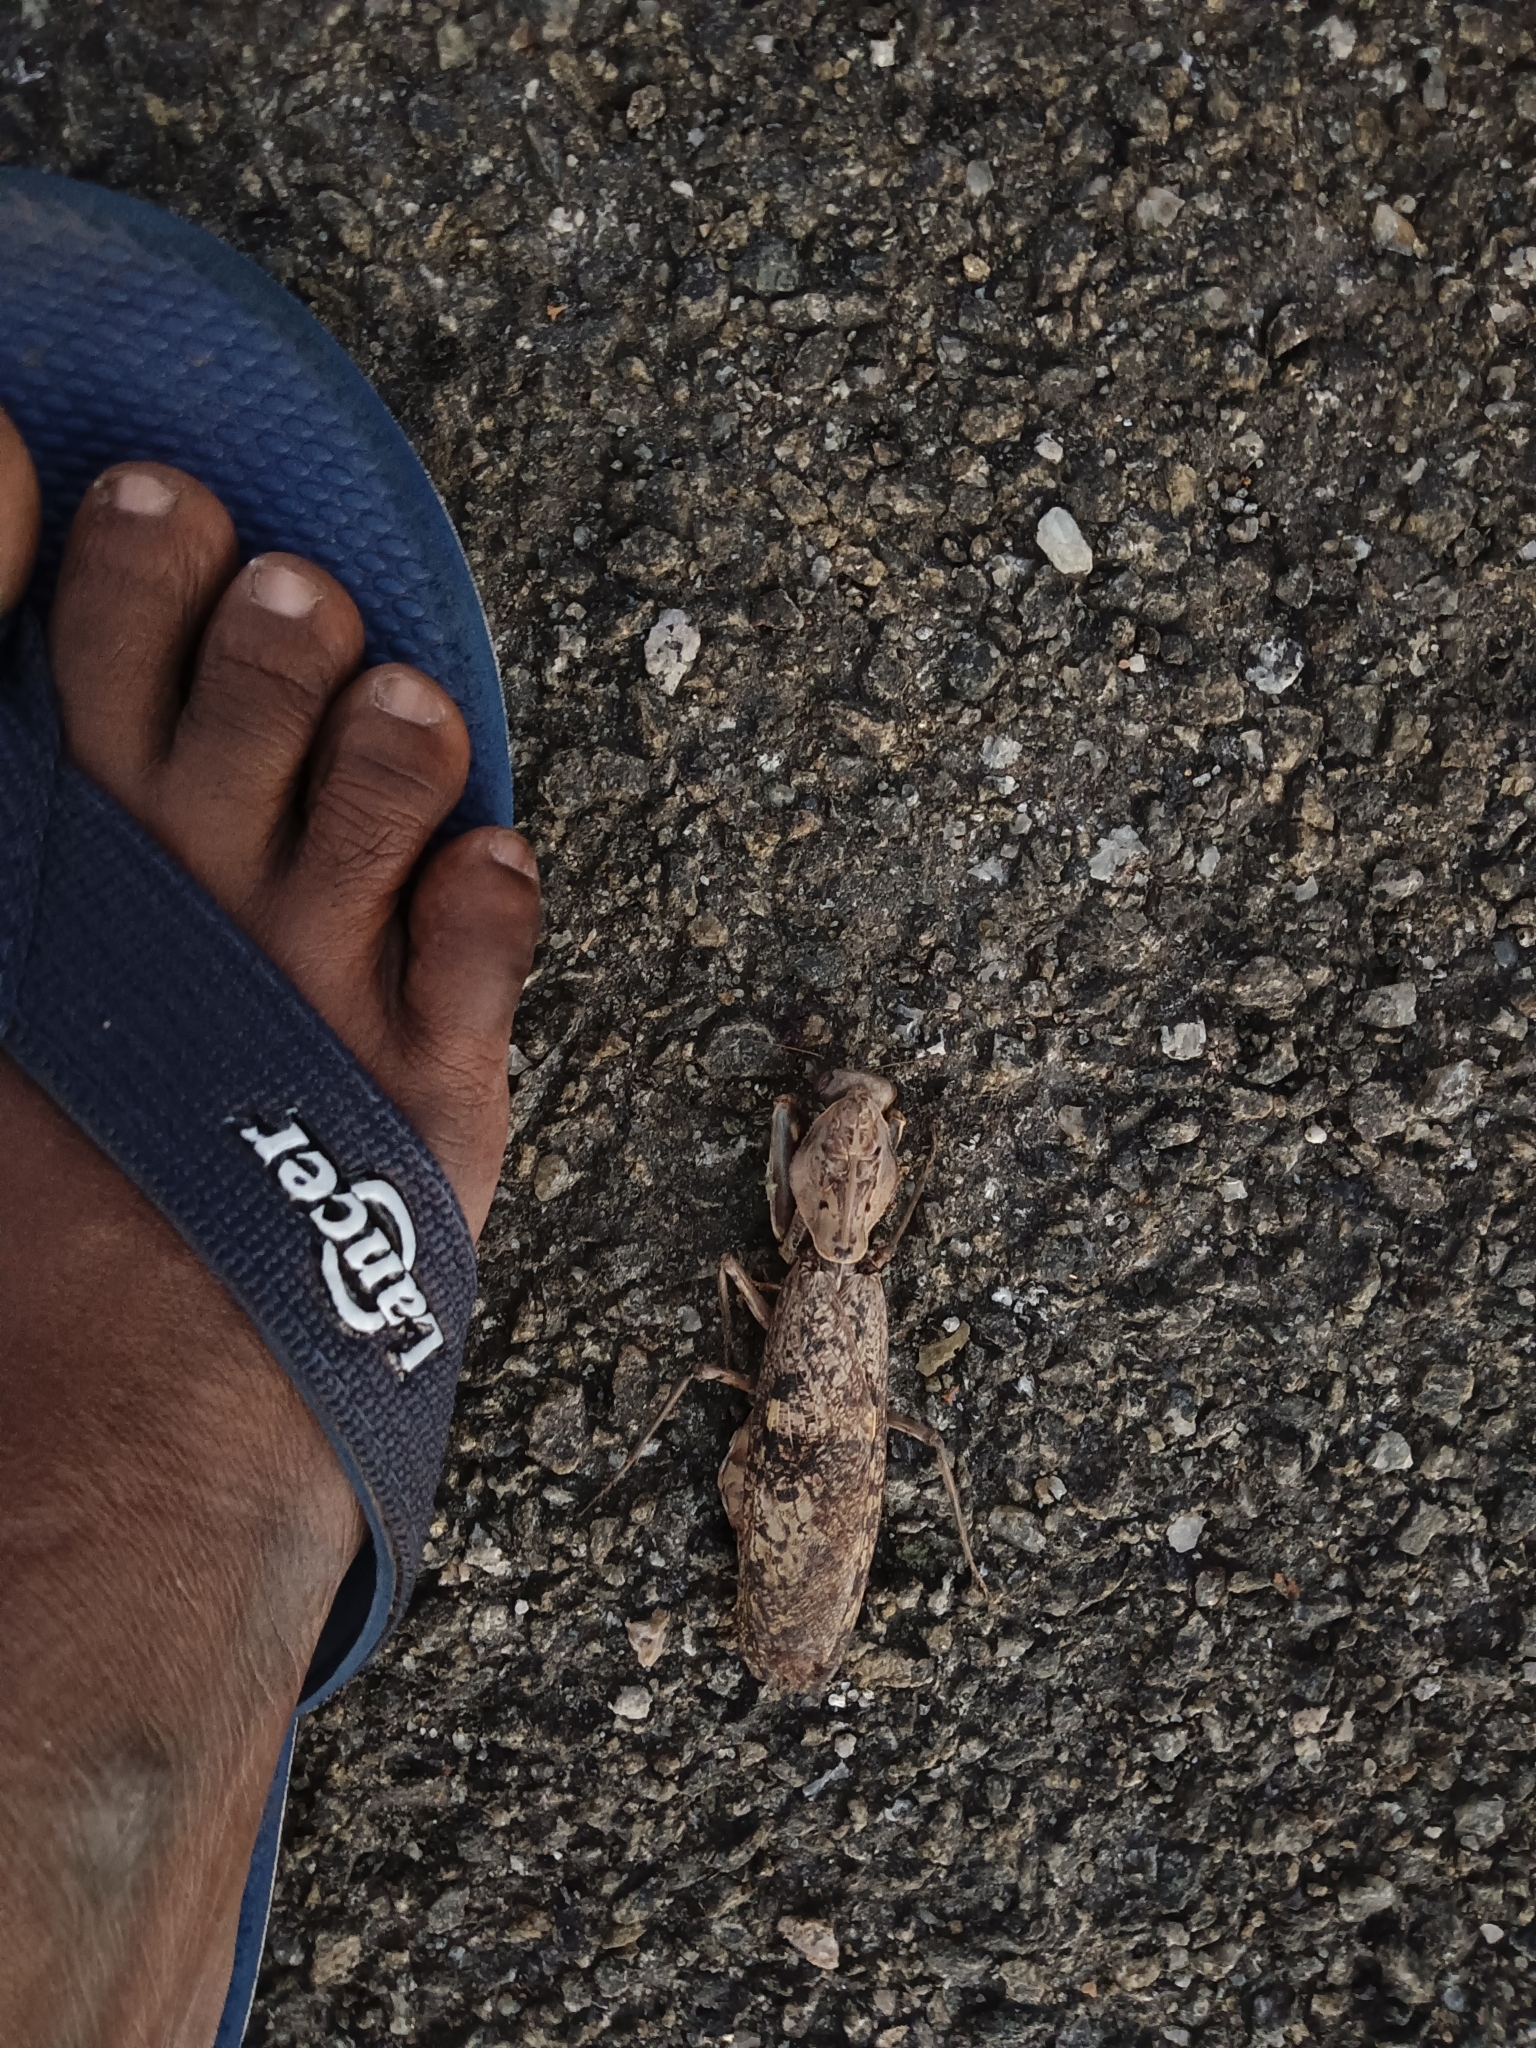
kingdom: Animalia
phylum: Arthropoda
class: Insecta
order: Mantodea
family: Mantidae
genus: Rhombomantis
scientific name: Rhombomantis woodmasoni
